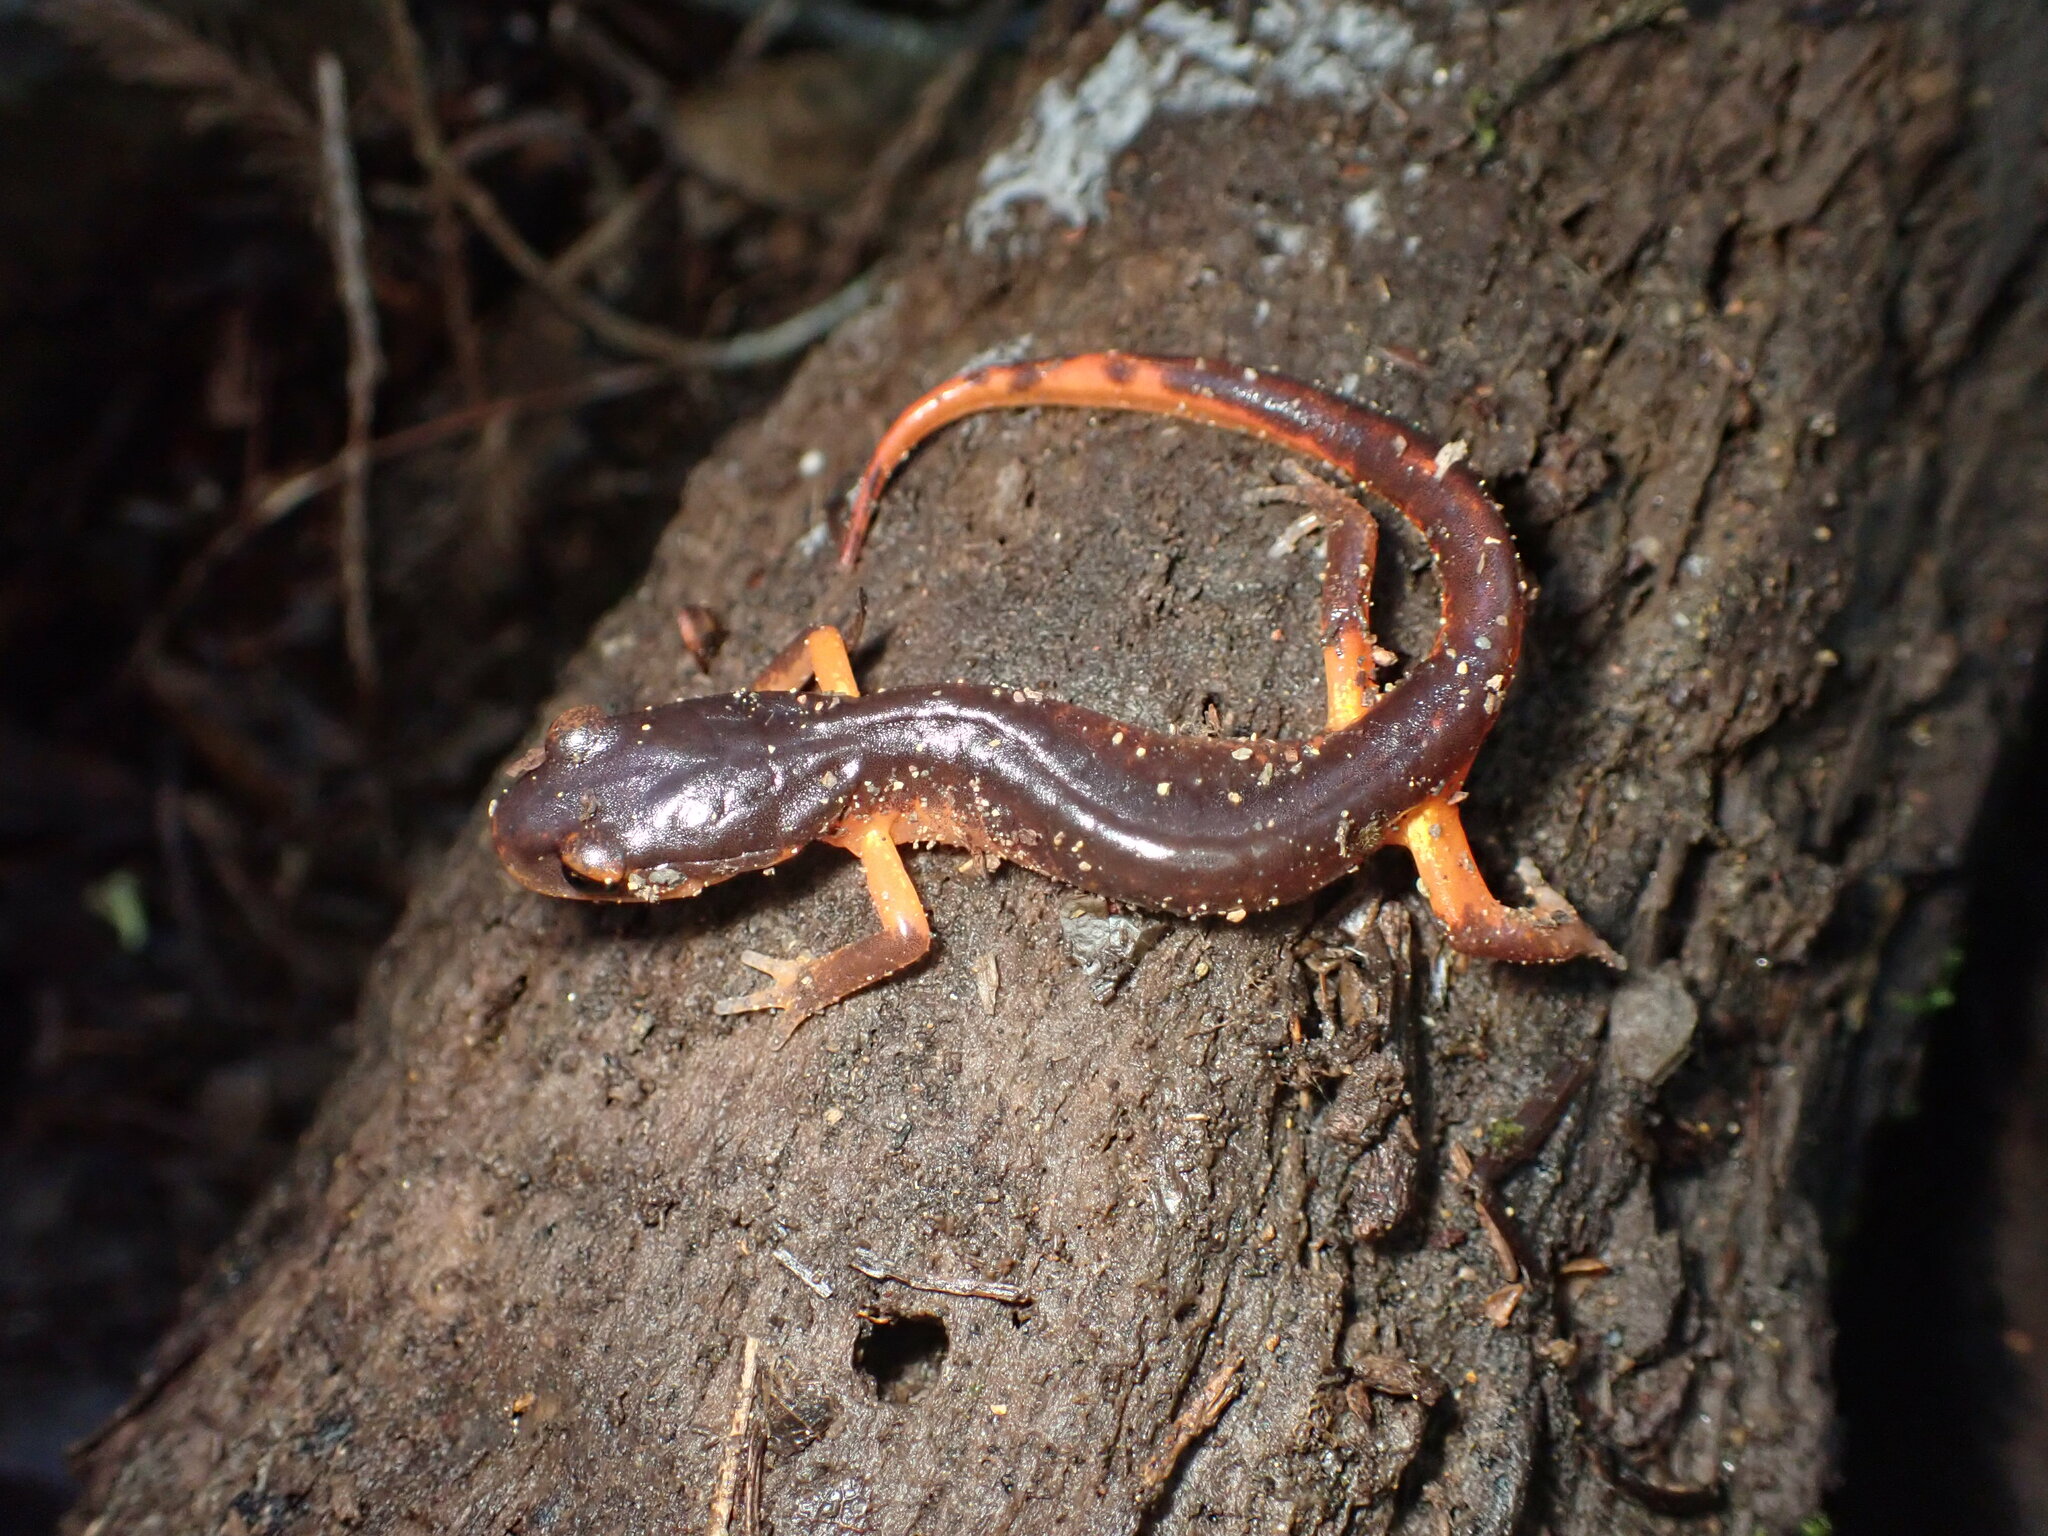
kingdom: Animalia
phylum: Chordata
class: Amphibia
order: Caudata
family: Plethodontidae
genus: Ensatina
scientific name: Ensatina eschscholtzii
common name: Ensatina
